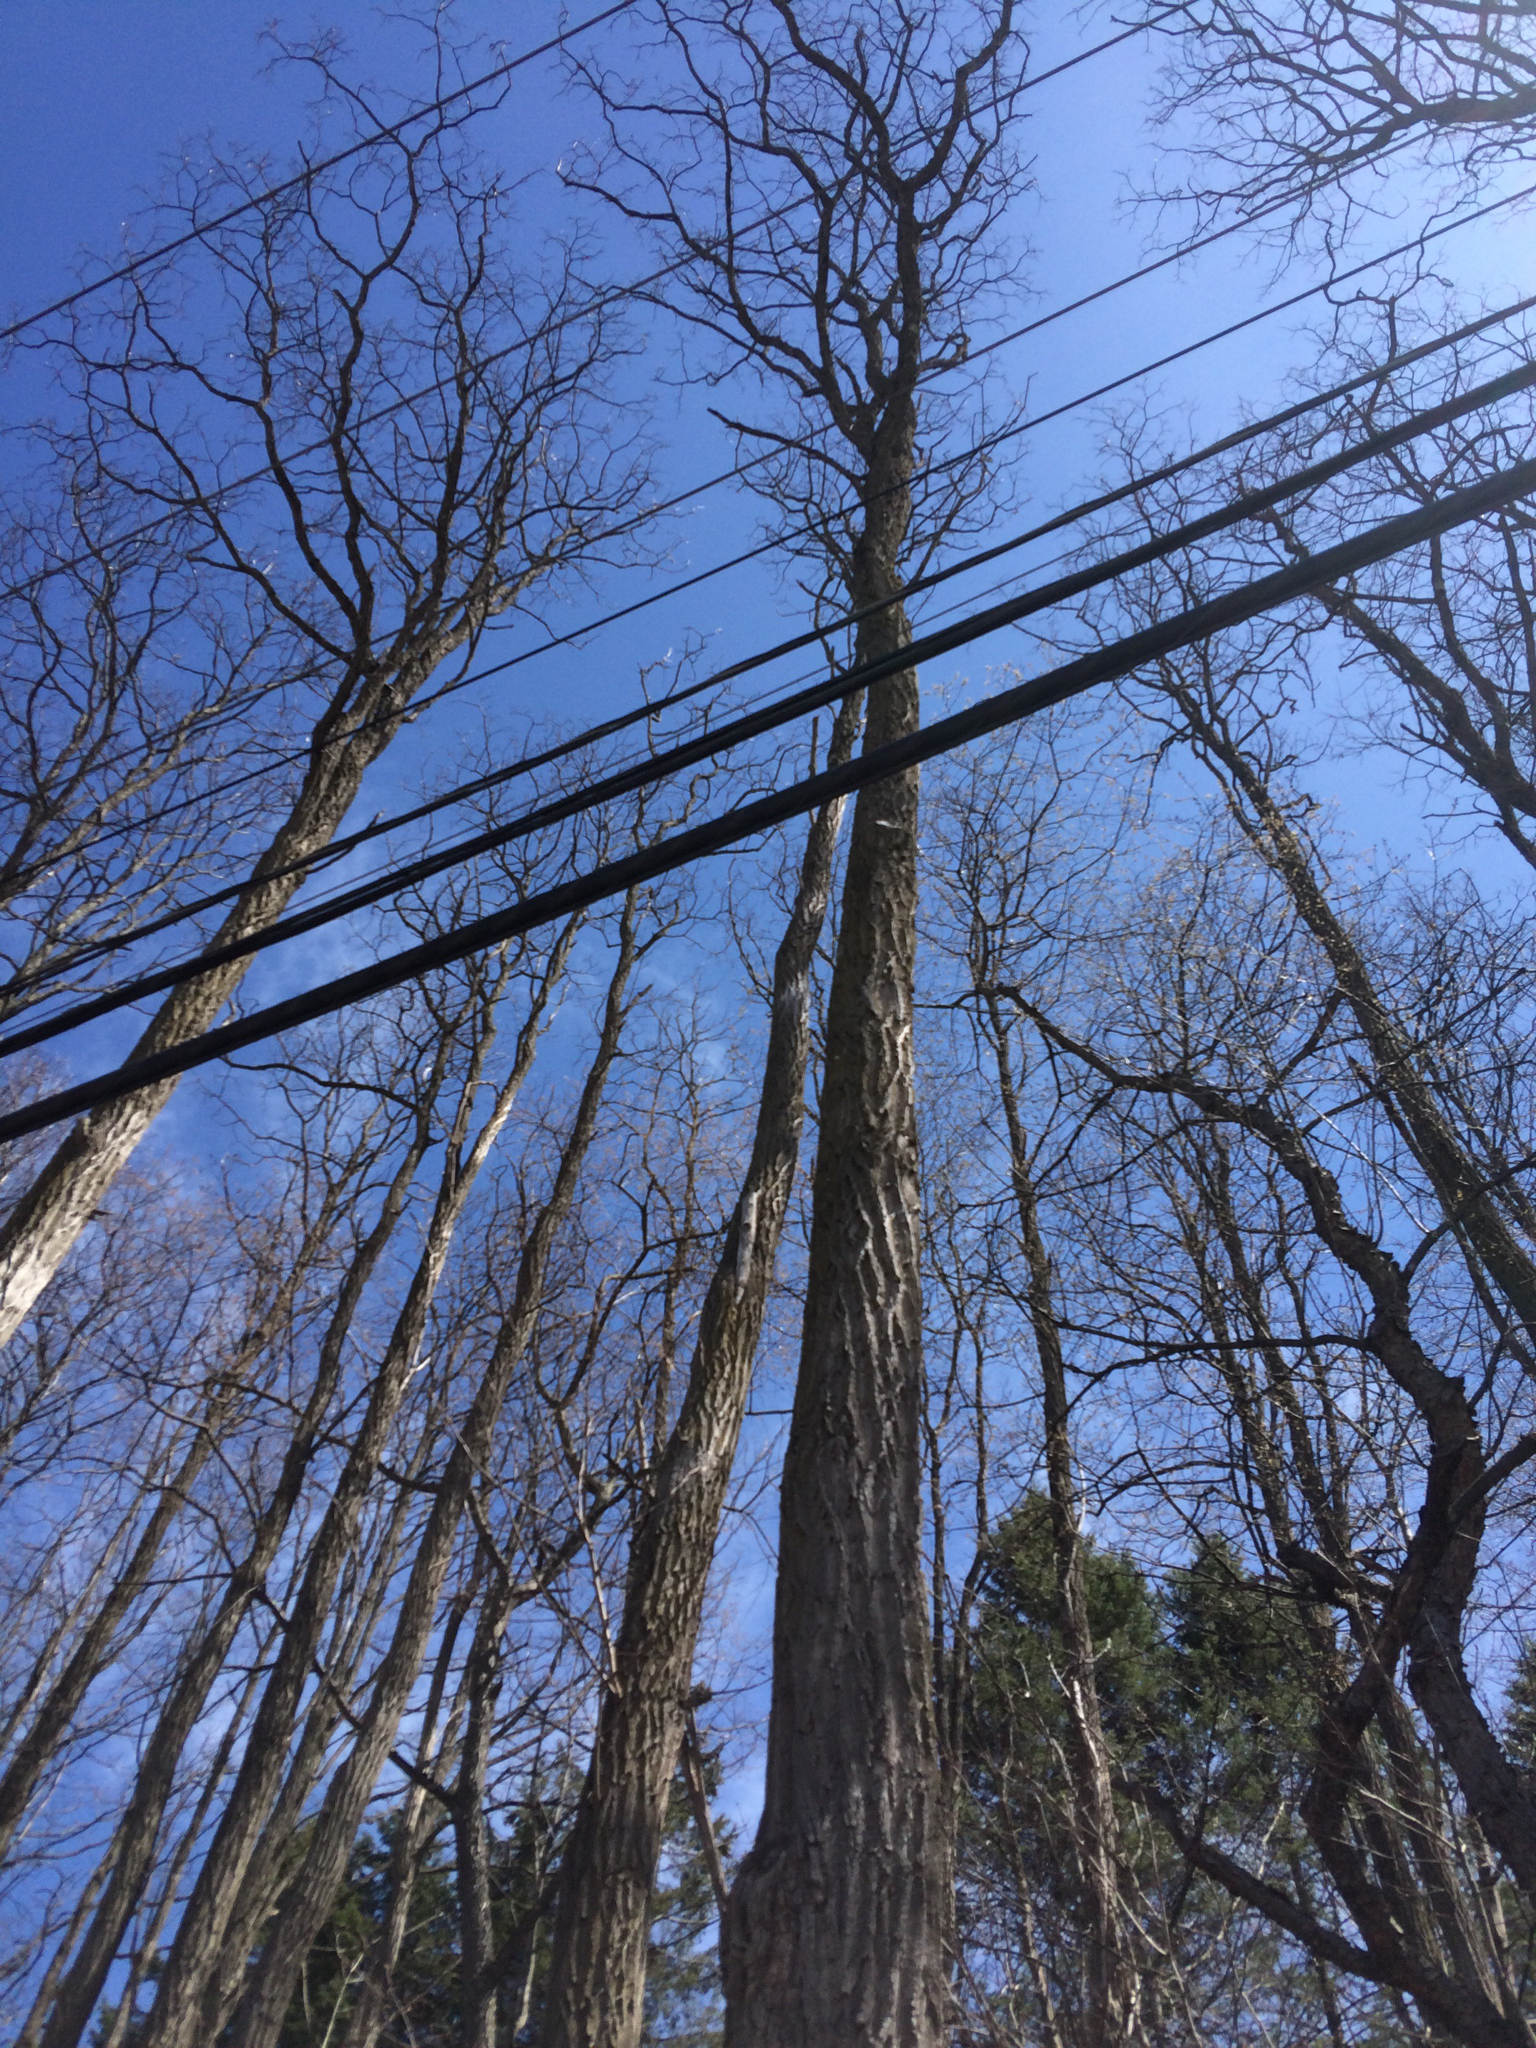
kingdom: Plantae
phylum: Tracheophyta
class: Magnoliopsida
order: Fabales
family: Fabaceae
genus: Robinia
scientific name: Robinia pseudoacacia
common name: Black locust
